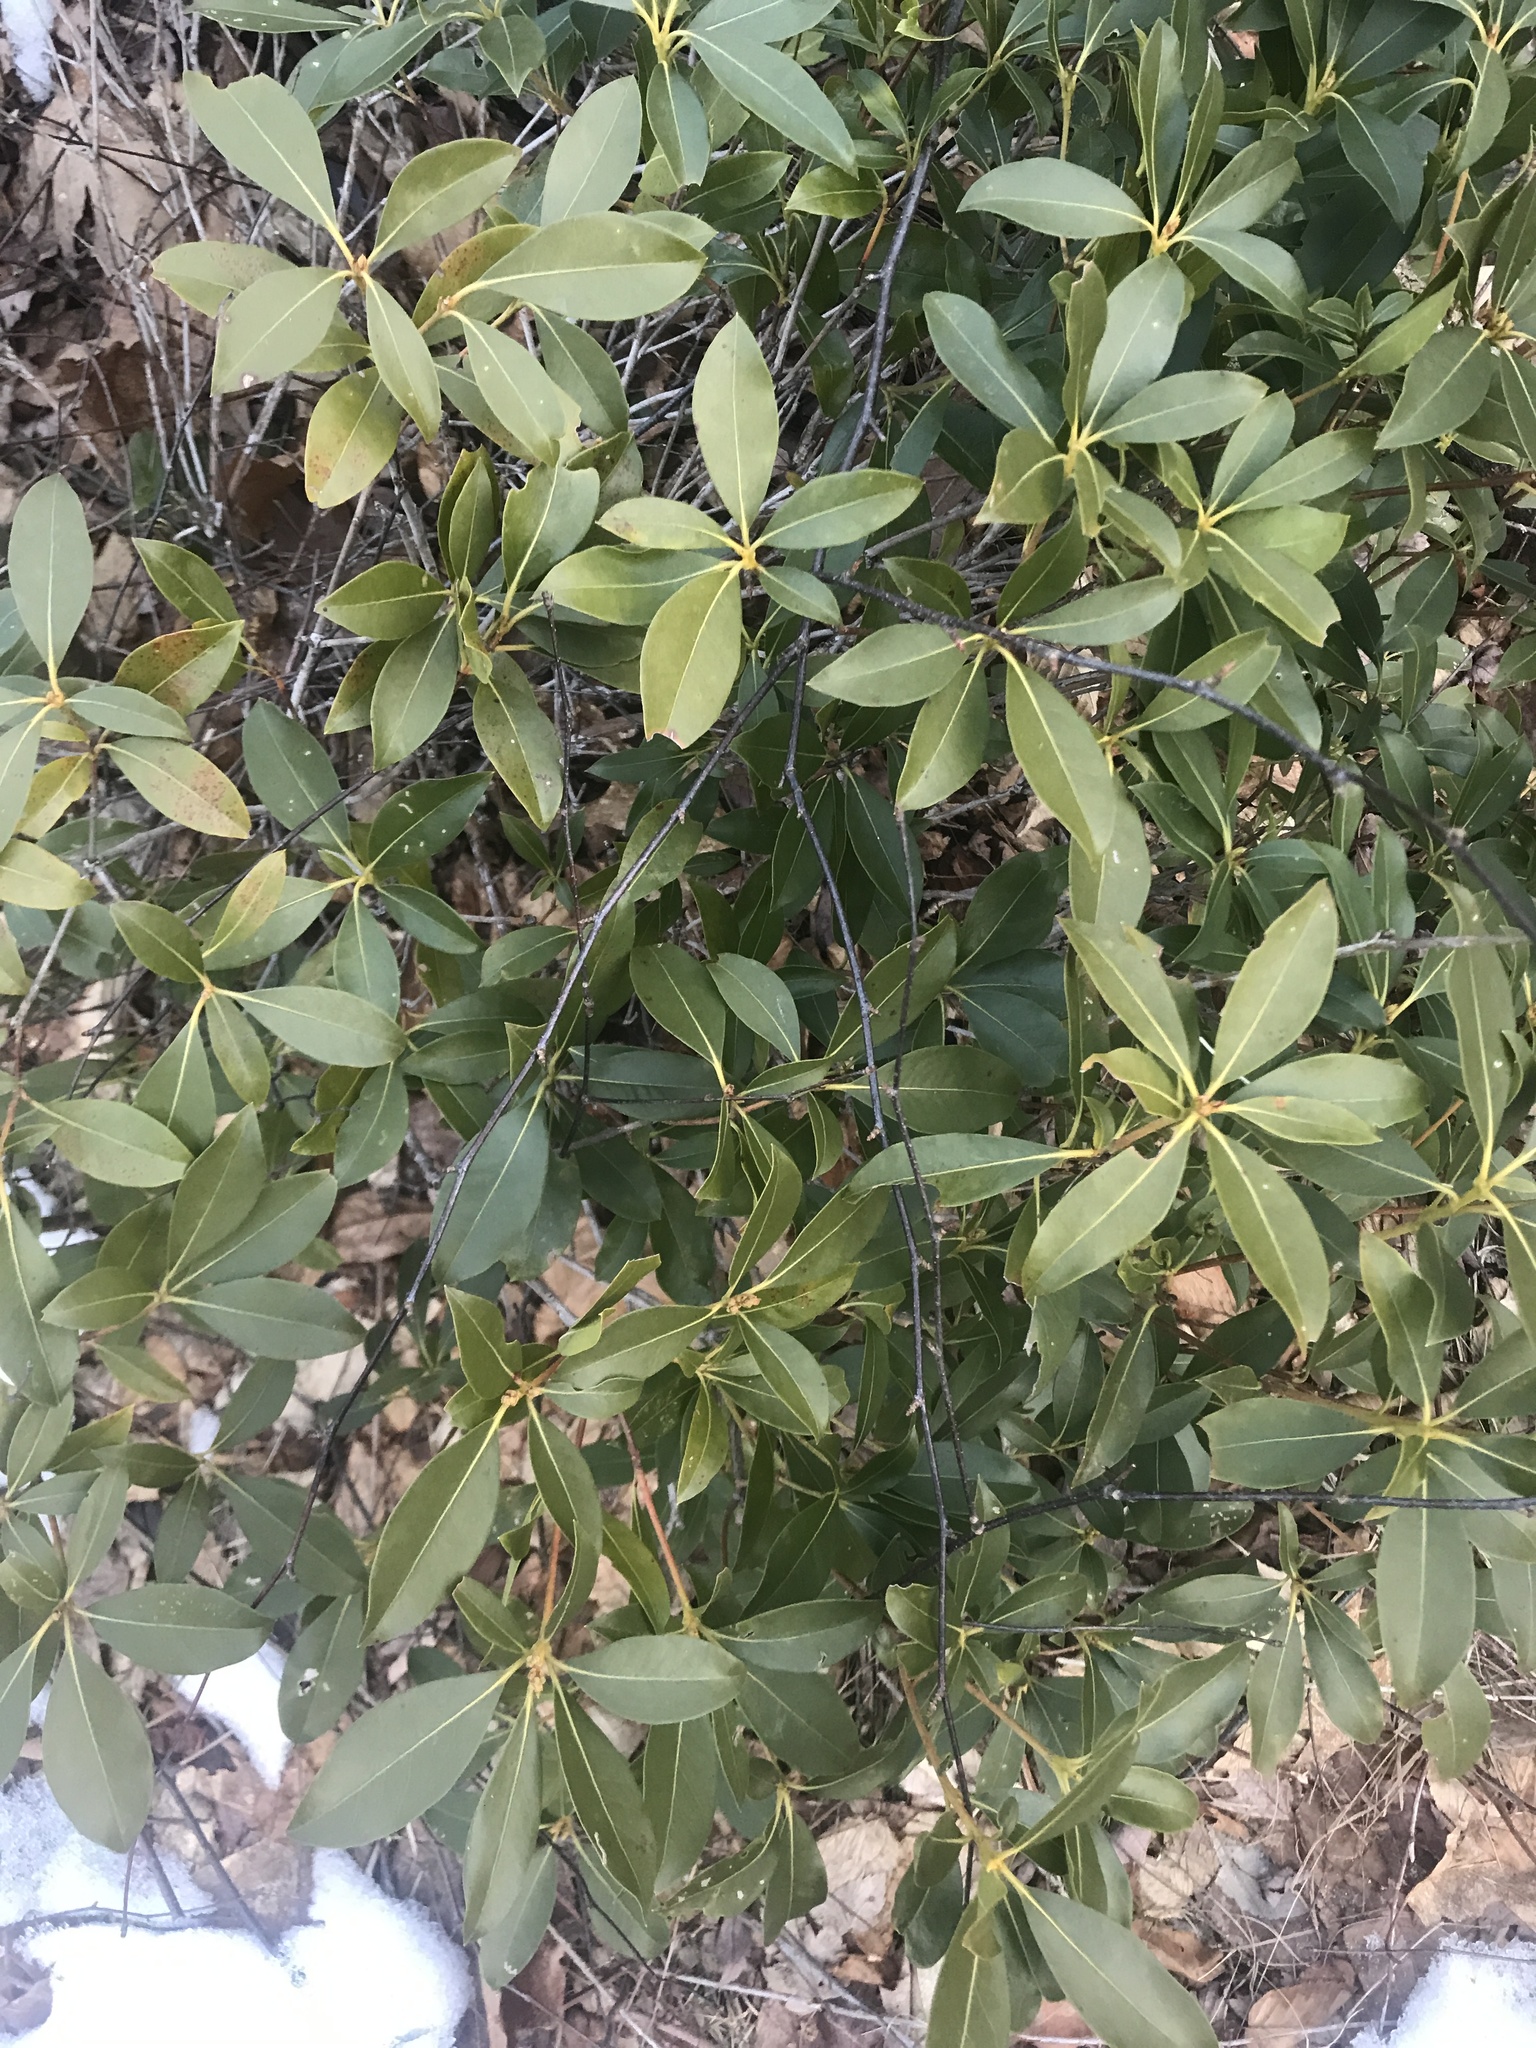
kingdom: Plantae
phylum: Tracheophyta
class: Magnoliopsida
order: Ericales
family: Ericaceae
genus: Kalmia
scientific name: Kalmia latifolia
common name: Mountain-laurel
